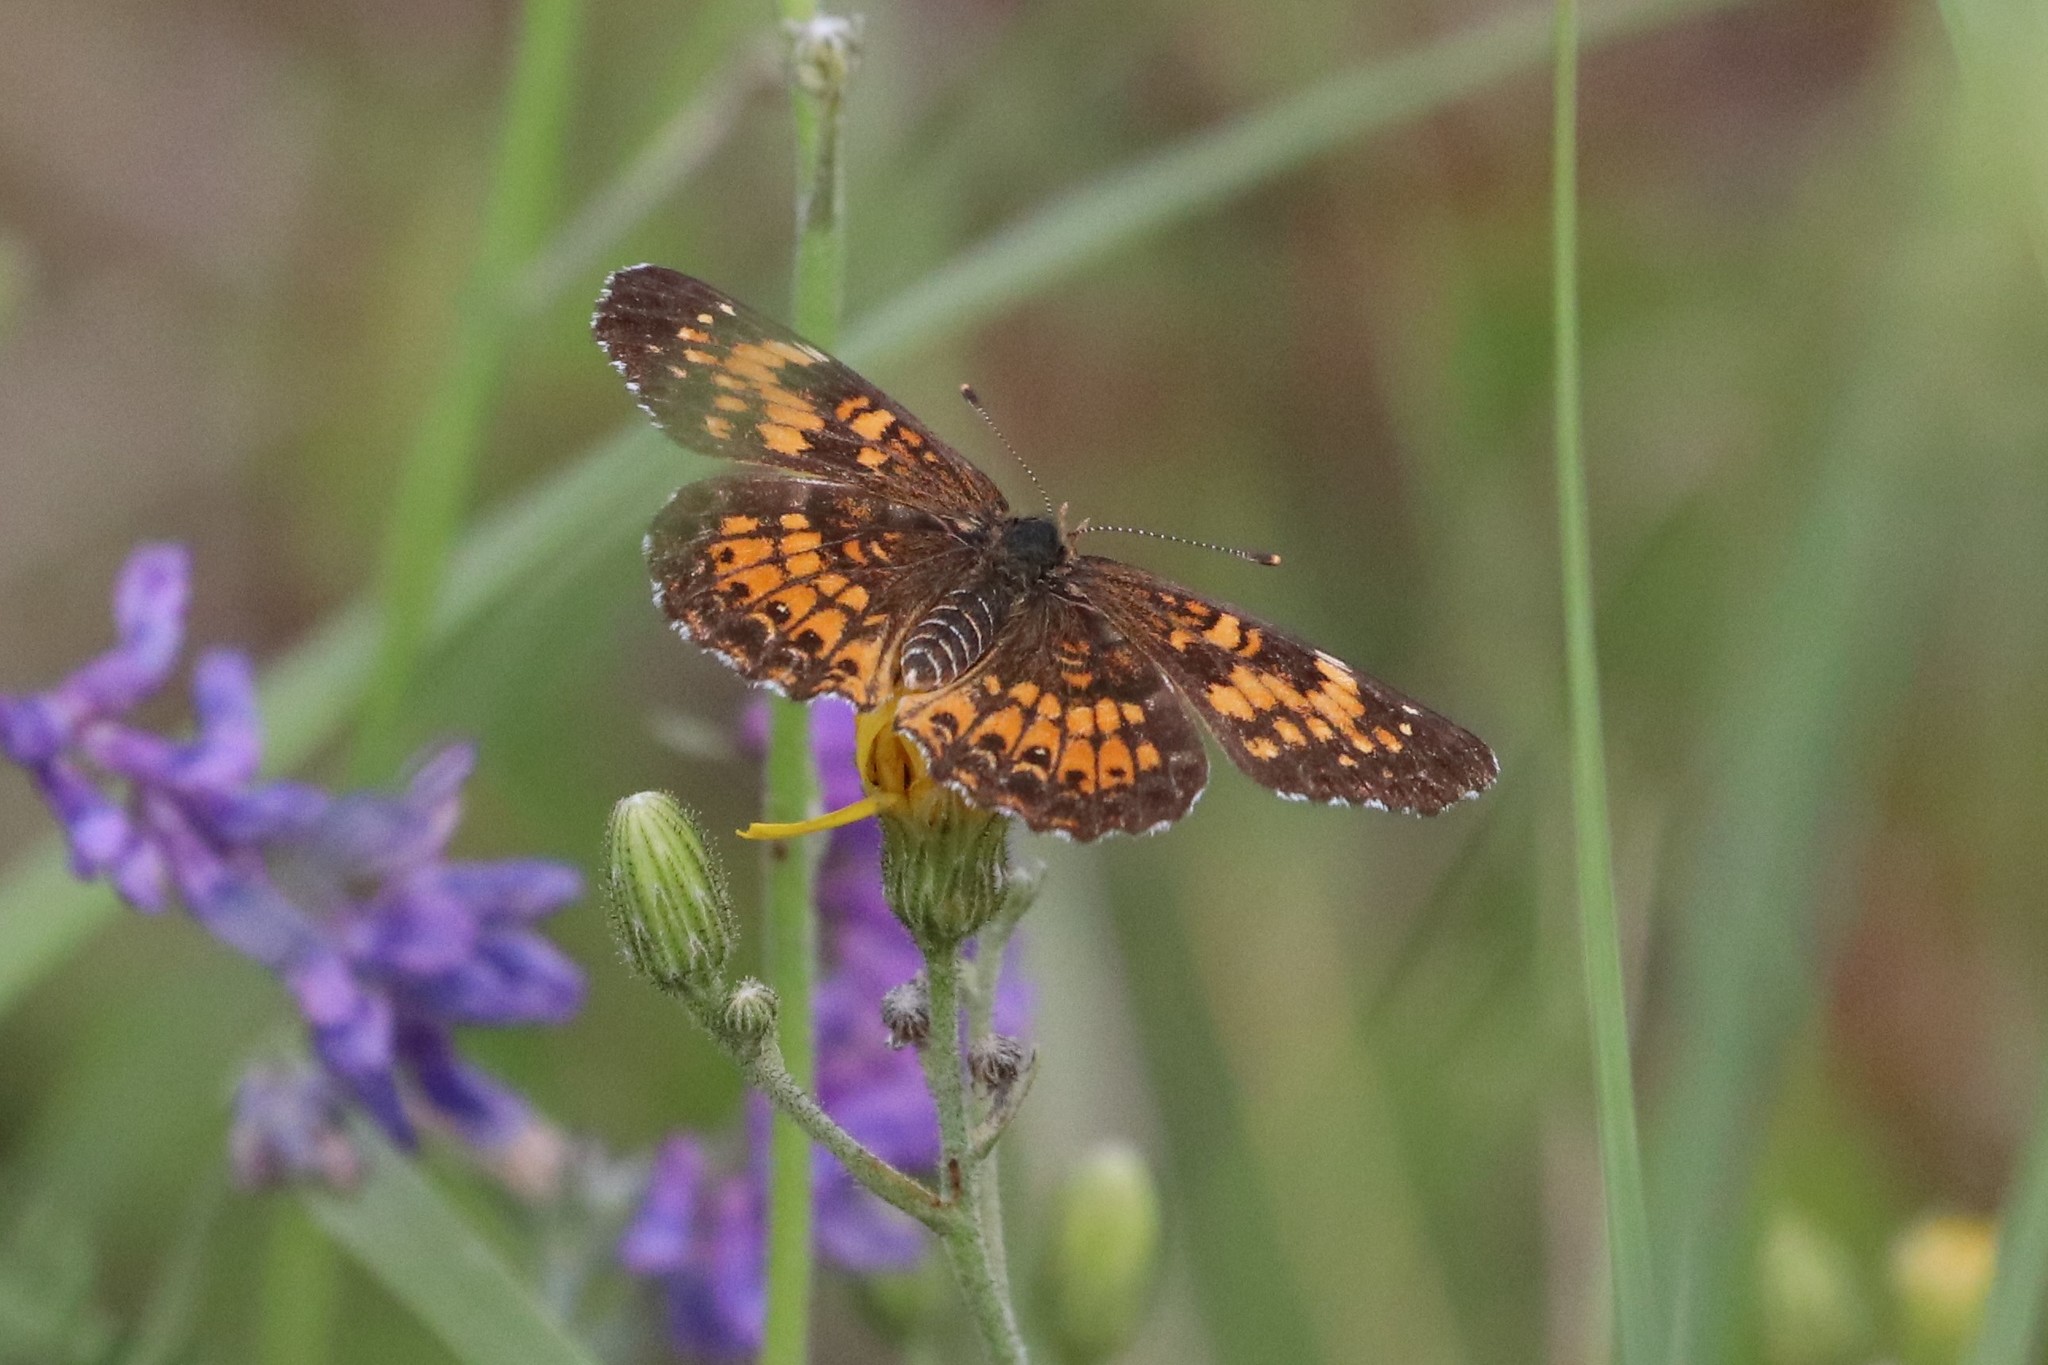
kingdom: Animalia
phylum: Arthropoda
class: Insecta
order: Lepidoptera
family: Nymphalidae
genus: Chlosyne
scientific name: Chlosyne harrisii
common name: Harris's checkerspot
